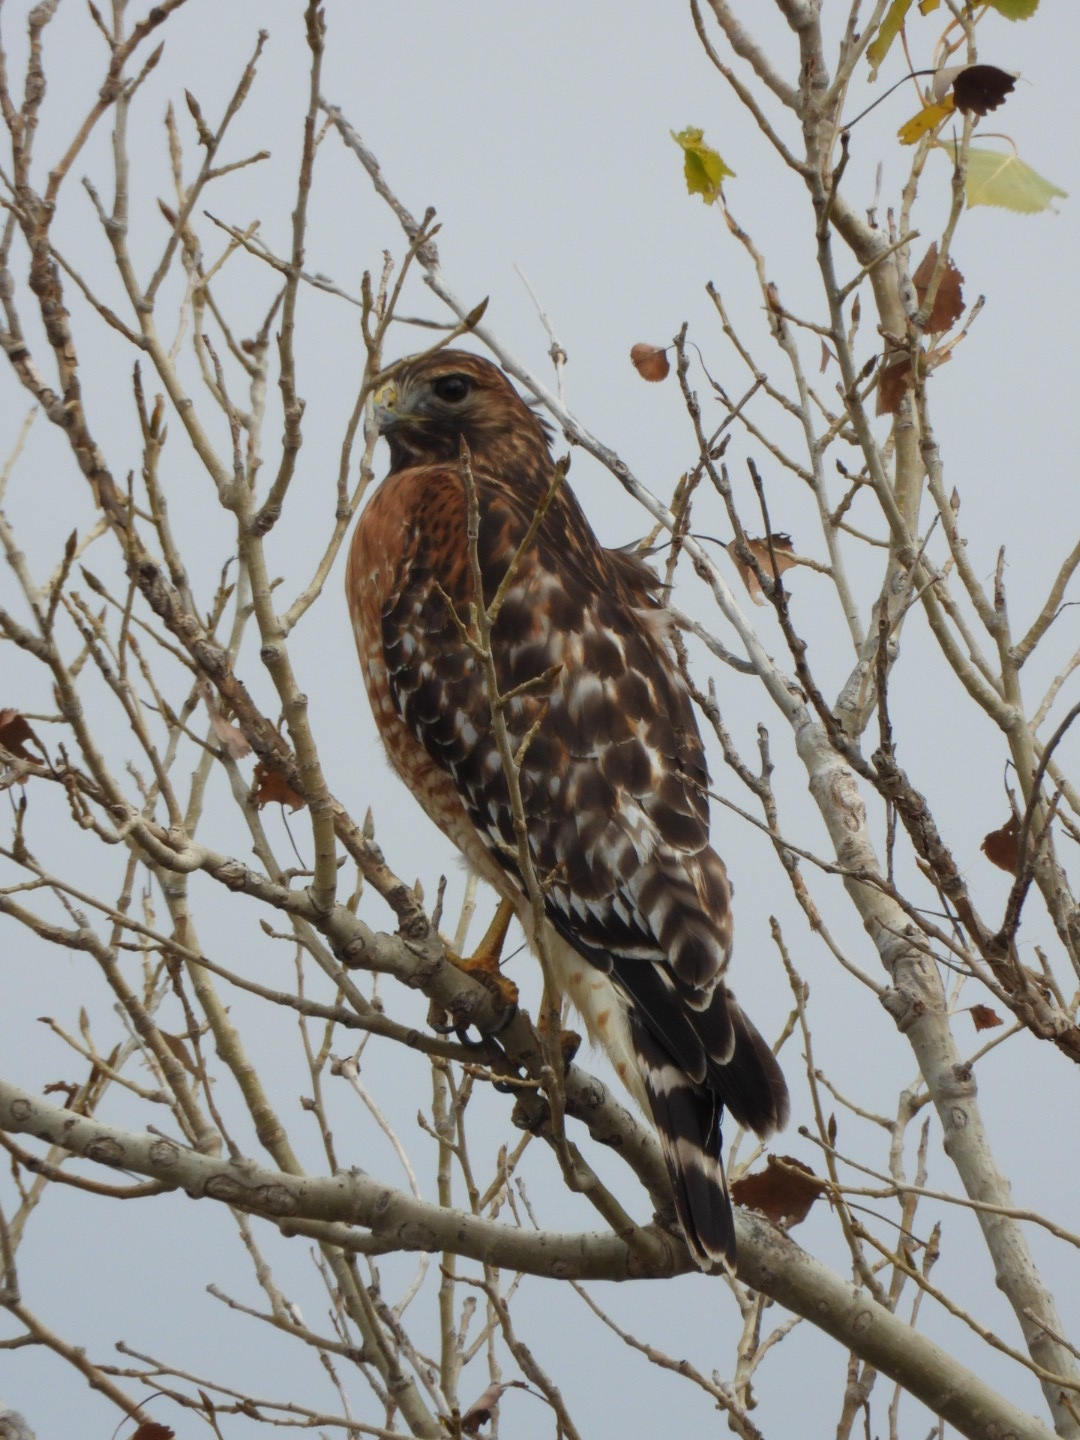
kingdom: Animalia
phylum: Chordata
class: Aves
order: Accipitriformes
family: Accipitridae
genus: Buteo
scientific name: Buteo lineatus
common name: Red-shouldered hawk
